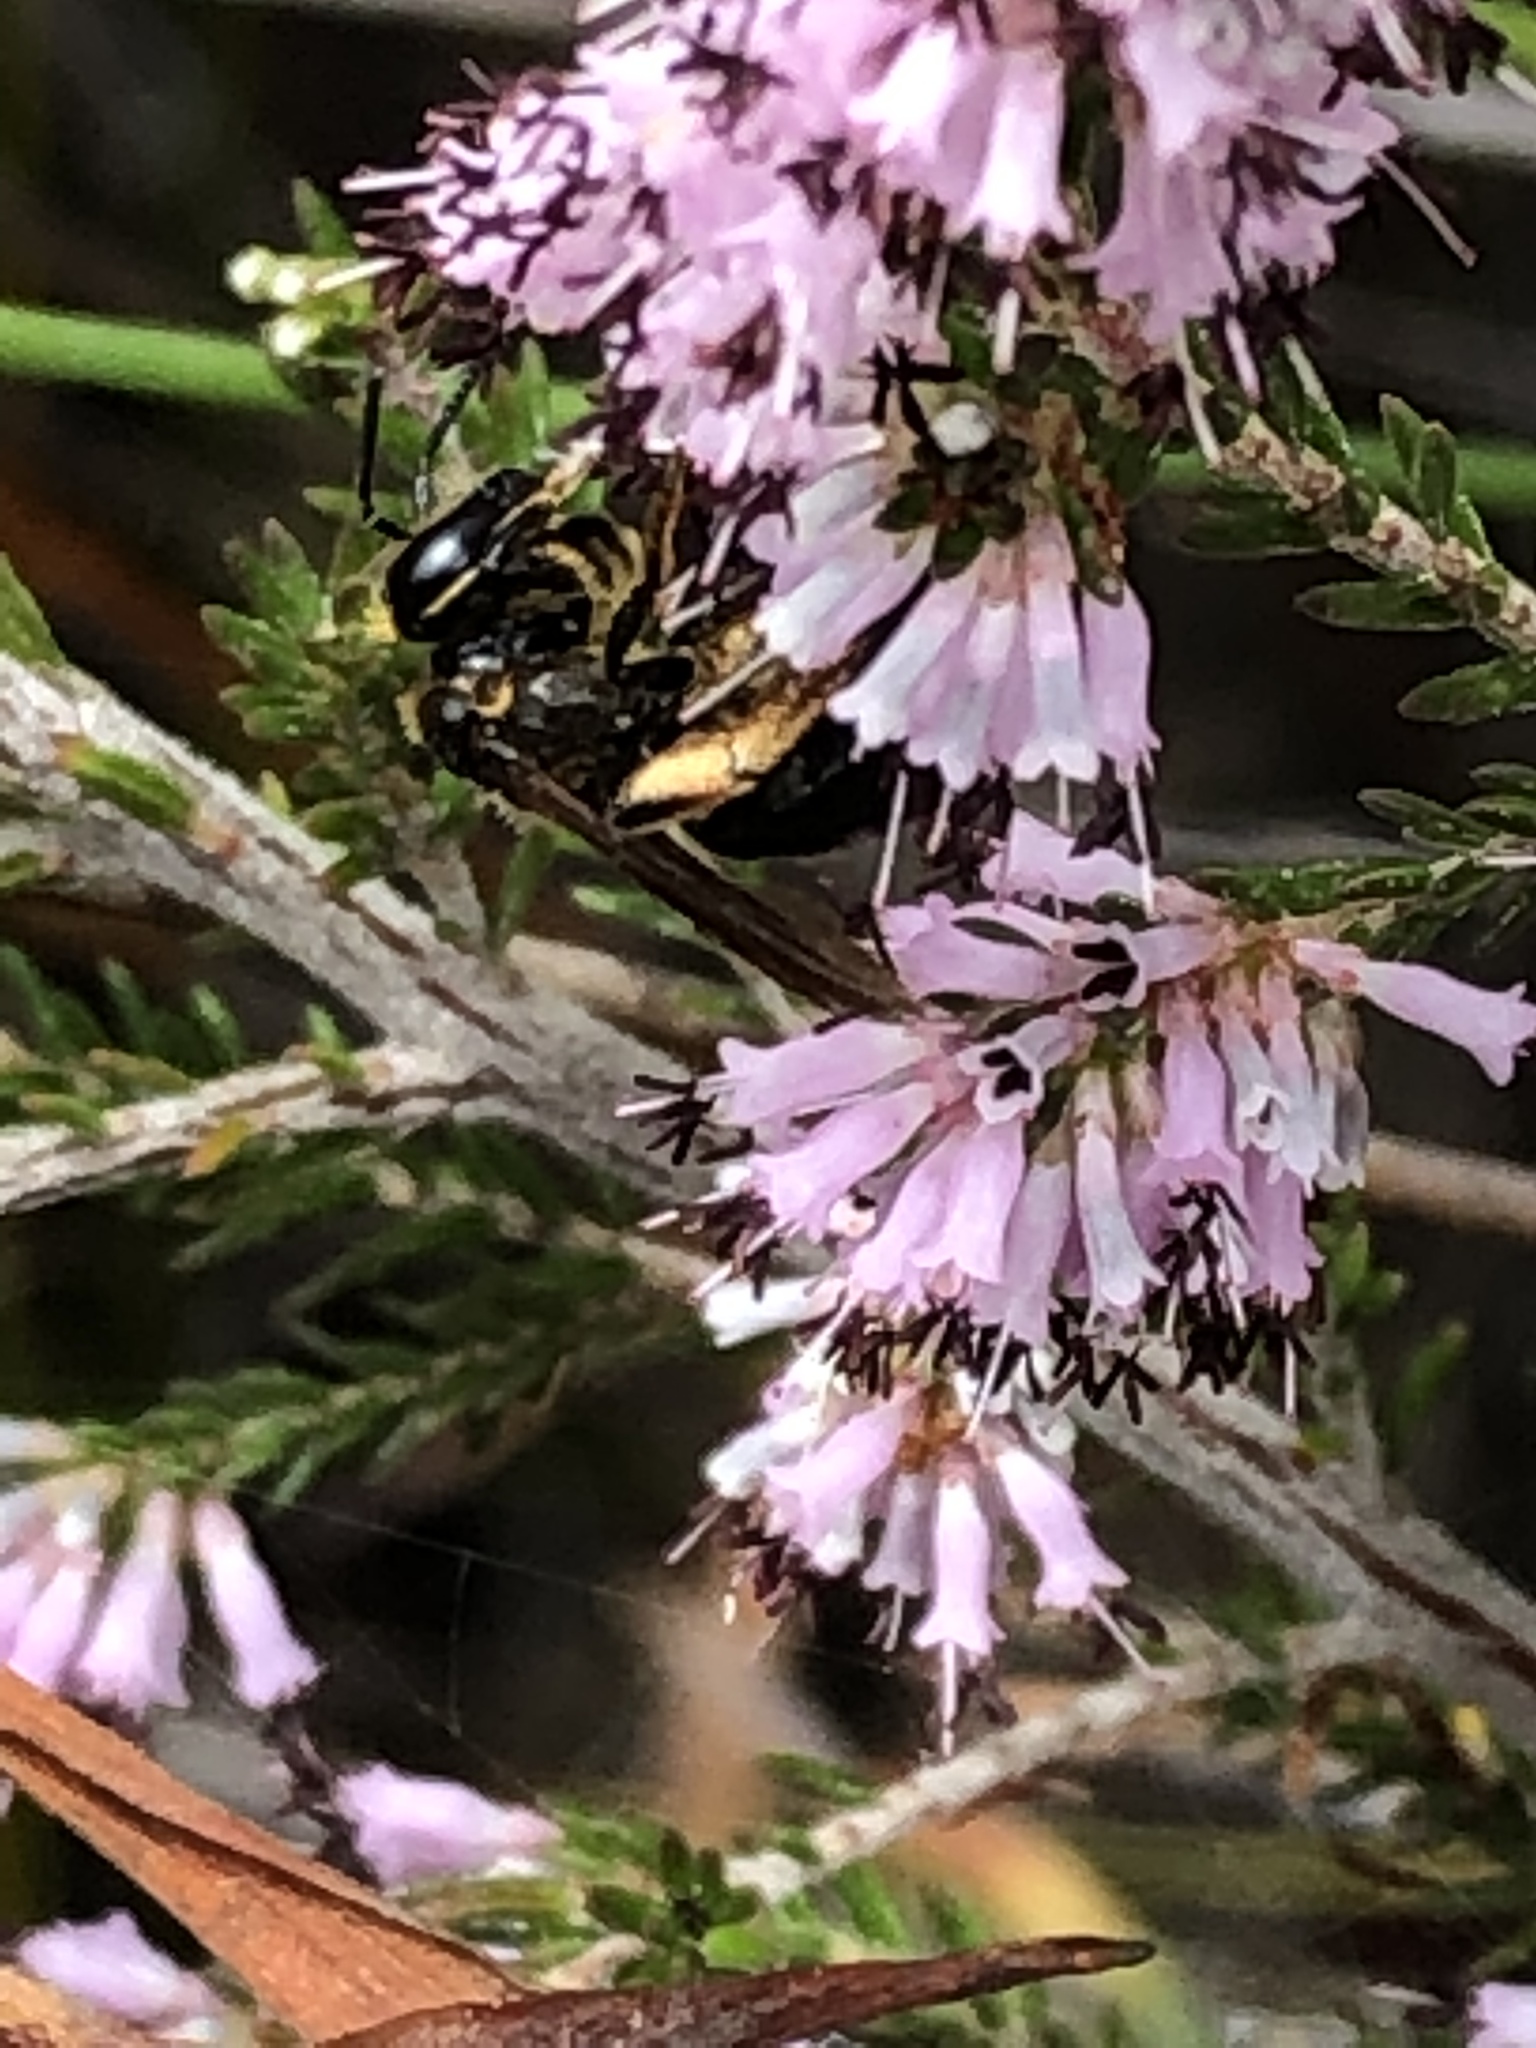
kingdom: Plantae
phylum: Tracheophyta
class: Magnoliopsida
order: Ericales
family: Ericaceae
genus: Erica
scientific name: Erica uberiflora
